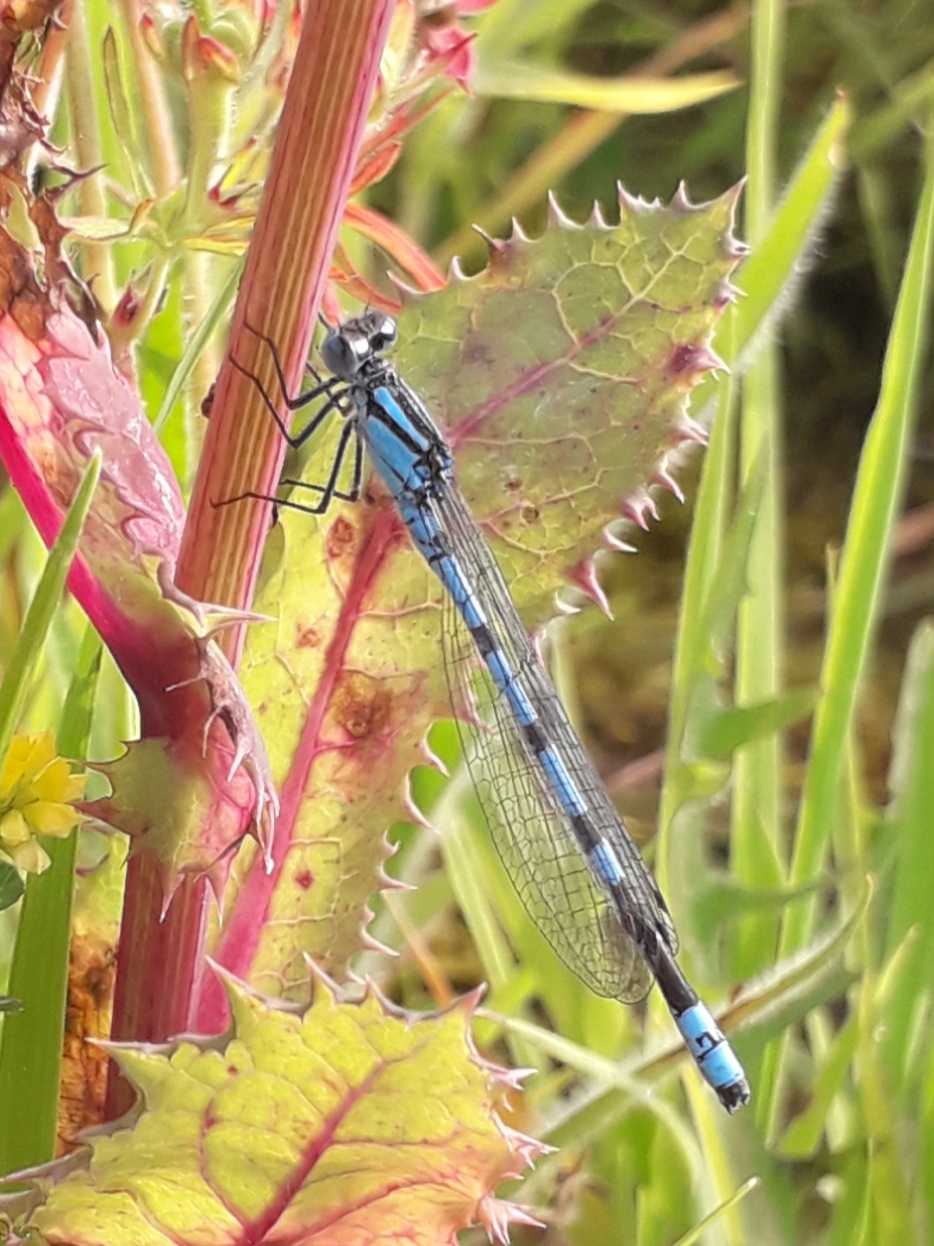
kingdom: Animalia
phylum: Arthropoda
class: Insecta
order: Odonata
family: Coenagrionidae
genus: Enallagma
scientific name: Enallagma cyathigerum
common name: Common blue damselfly
